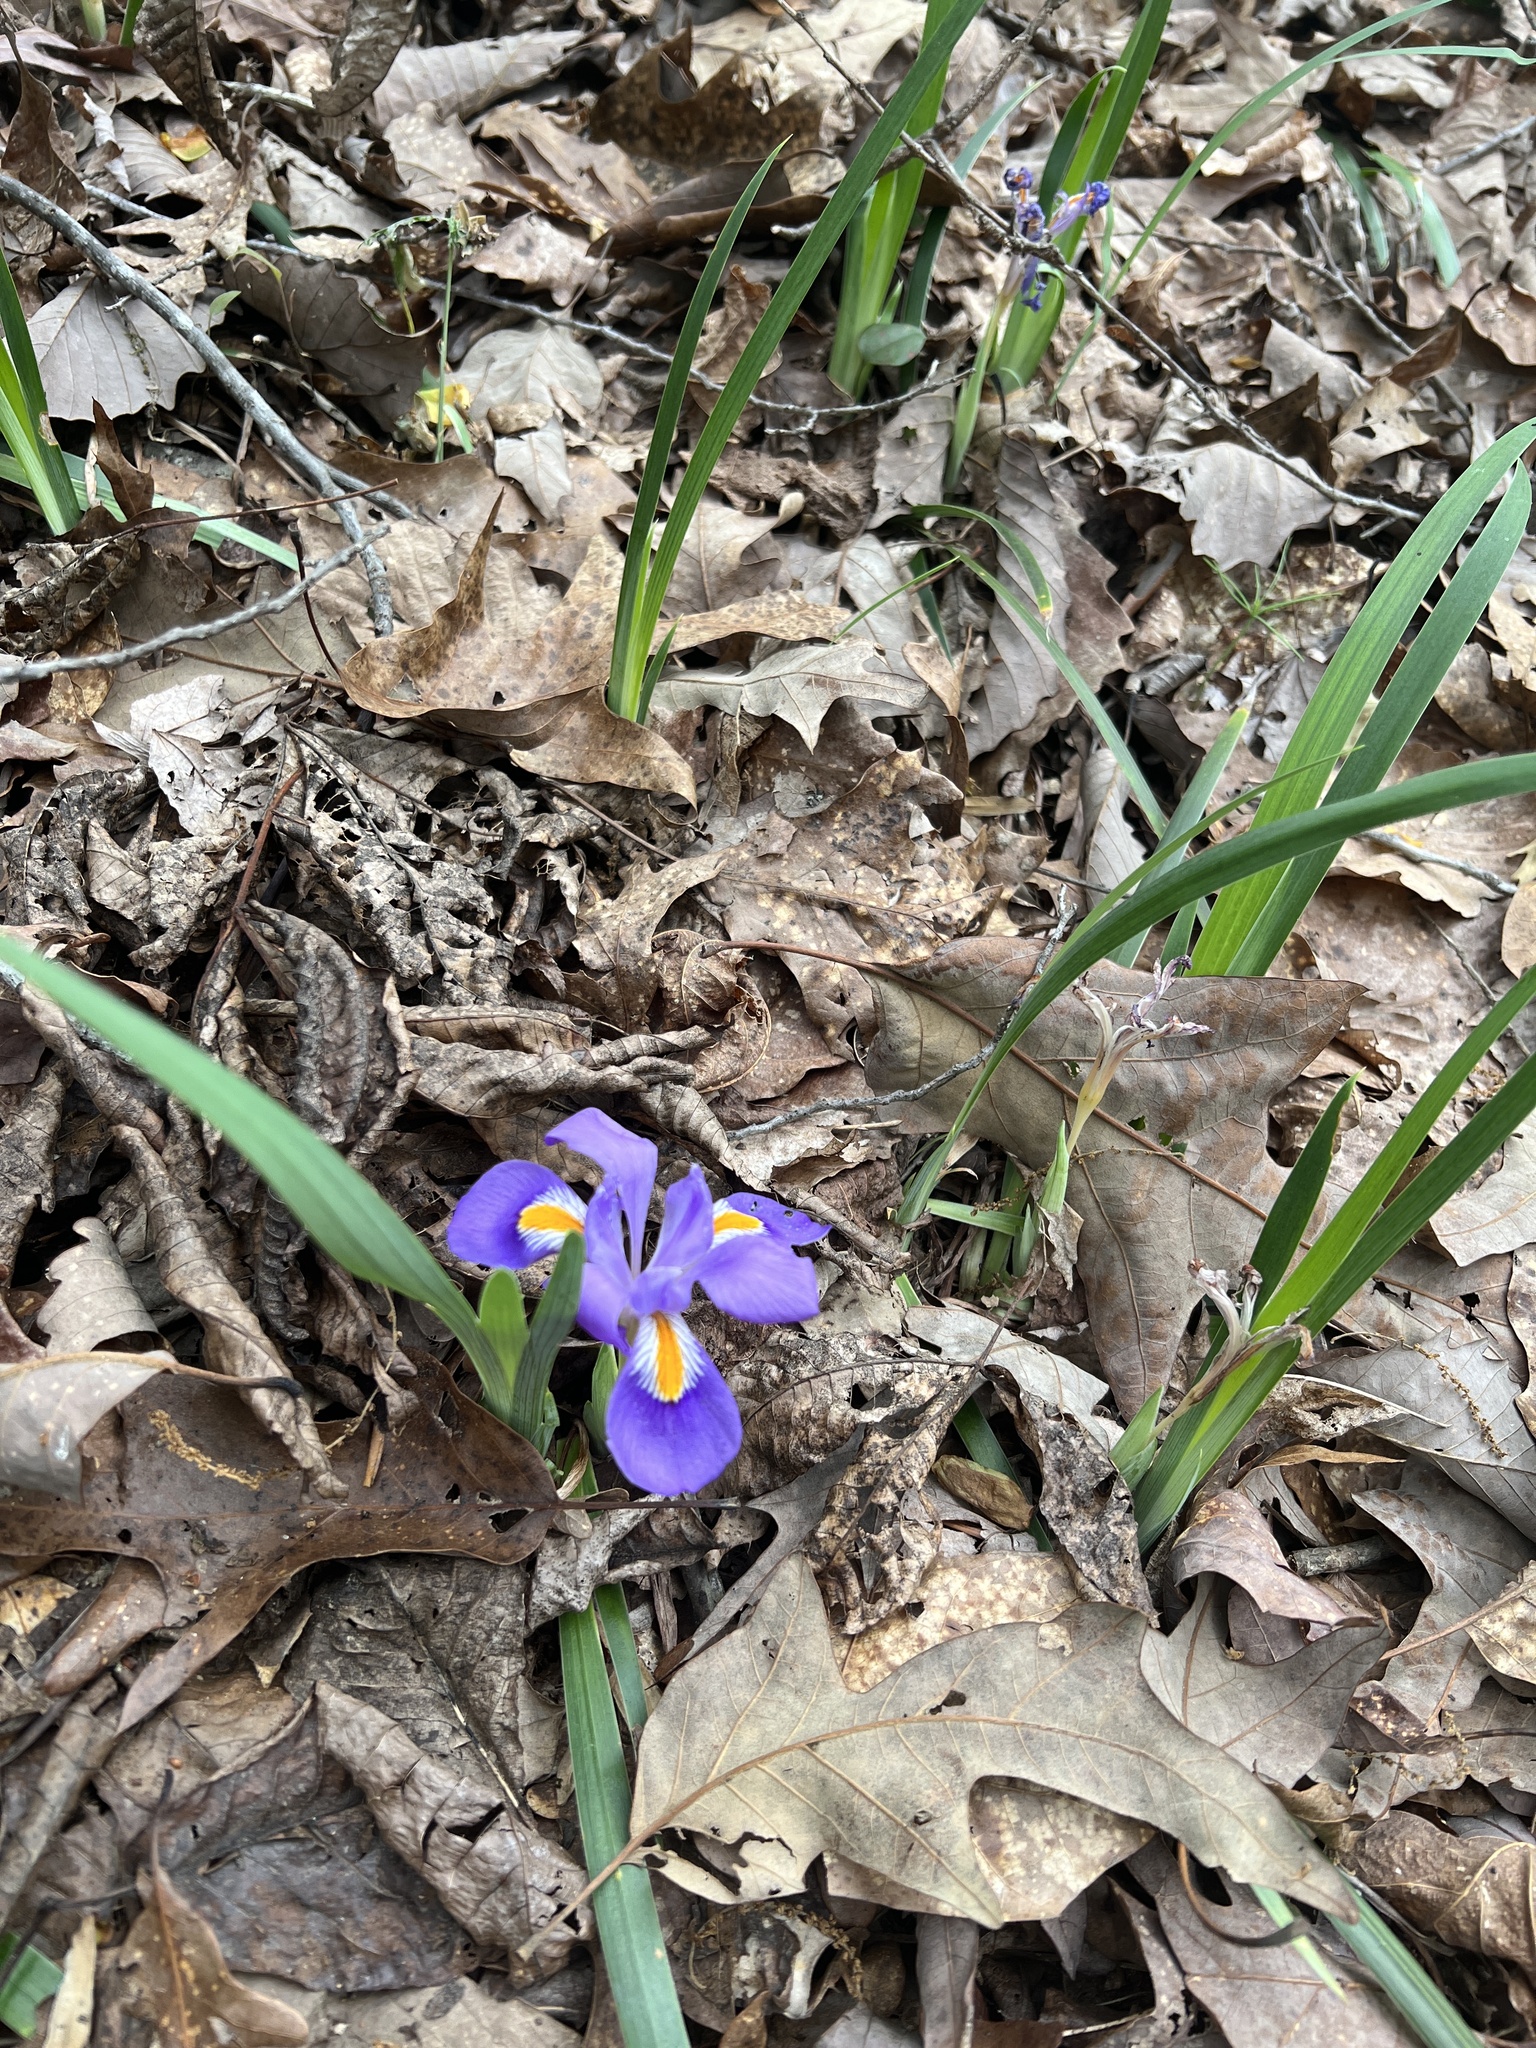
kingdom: Plantae
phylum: Tracheophyta
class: Liliopsida
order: Asparagales
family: Iridaceae
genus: Iris
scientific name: Iris verna
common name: Dwarf iris
